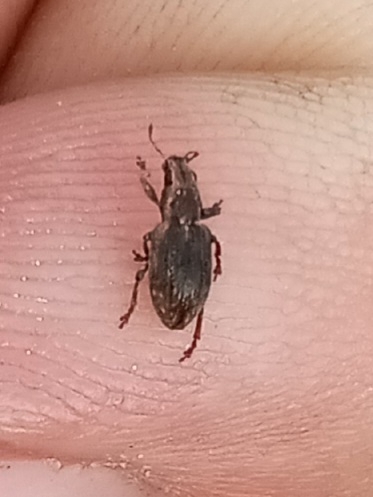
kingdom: Animalia
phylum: Arthropoda
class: Insecta
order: Coleoptera
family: Curculionidae
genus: Sitona
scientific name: Sitona obsoletus
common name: Weevil
